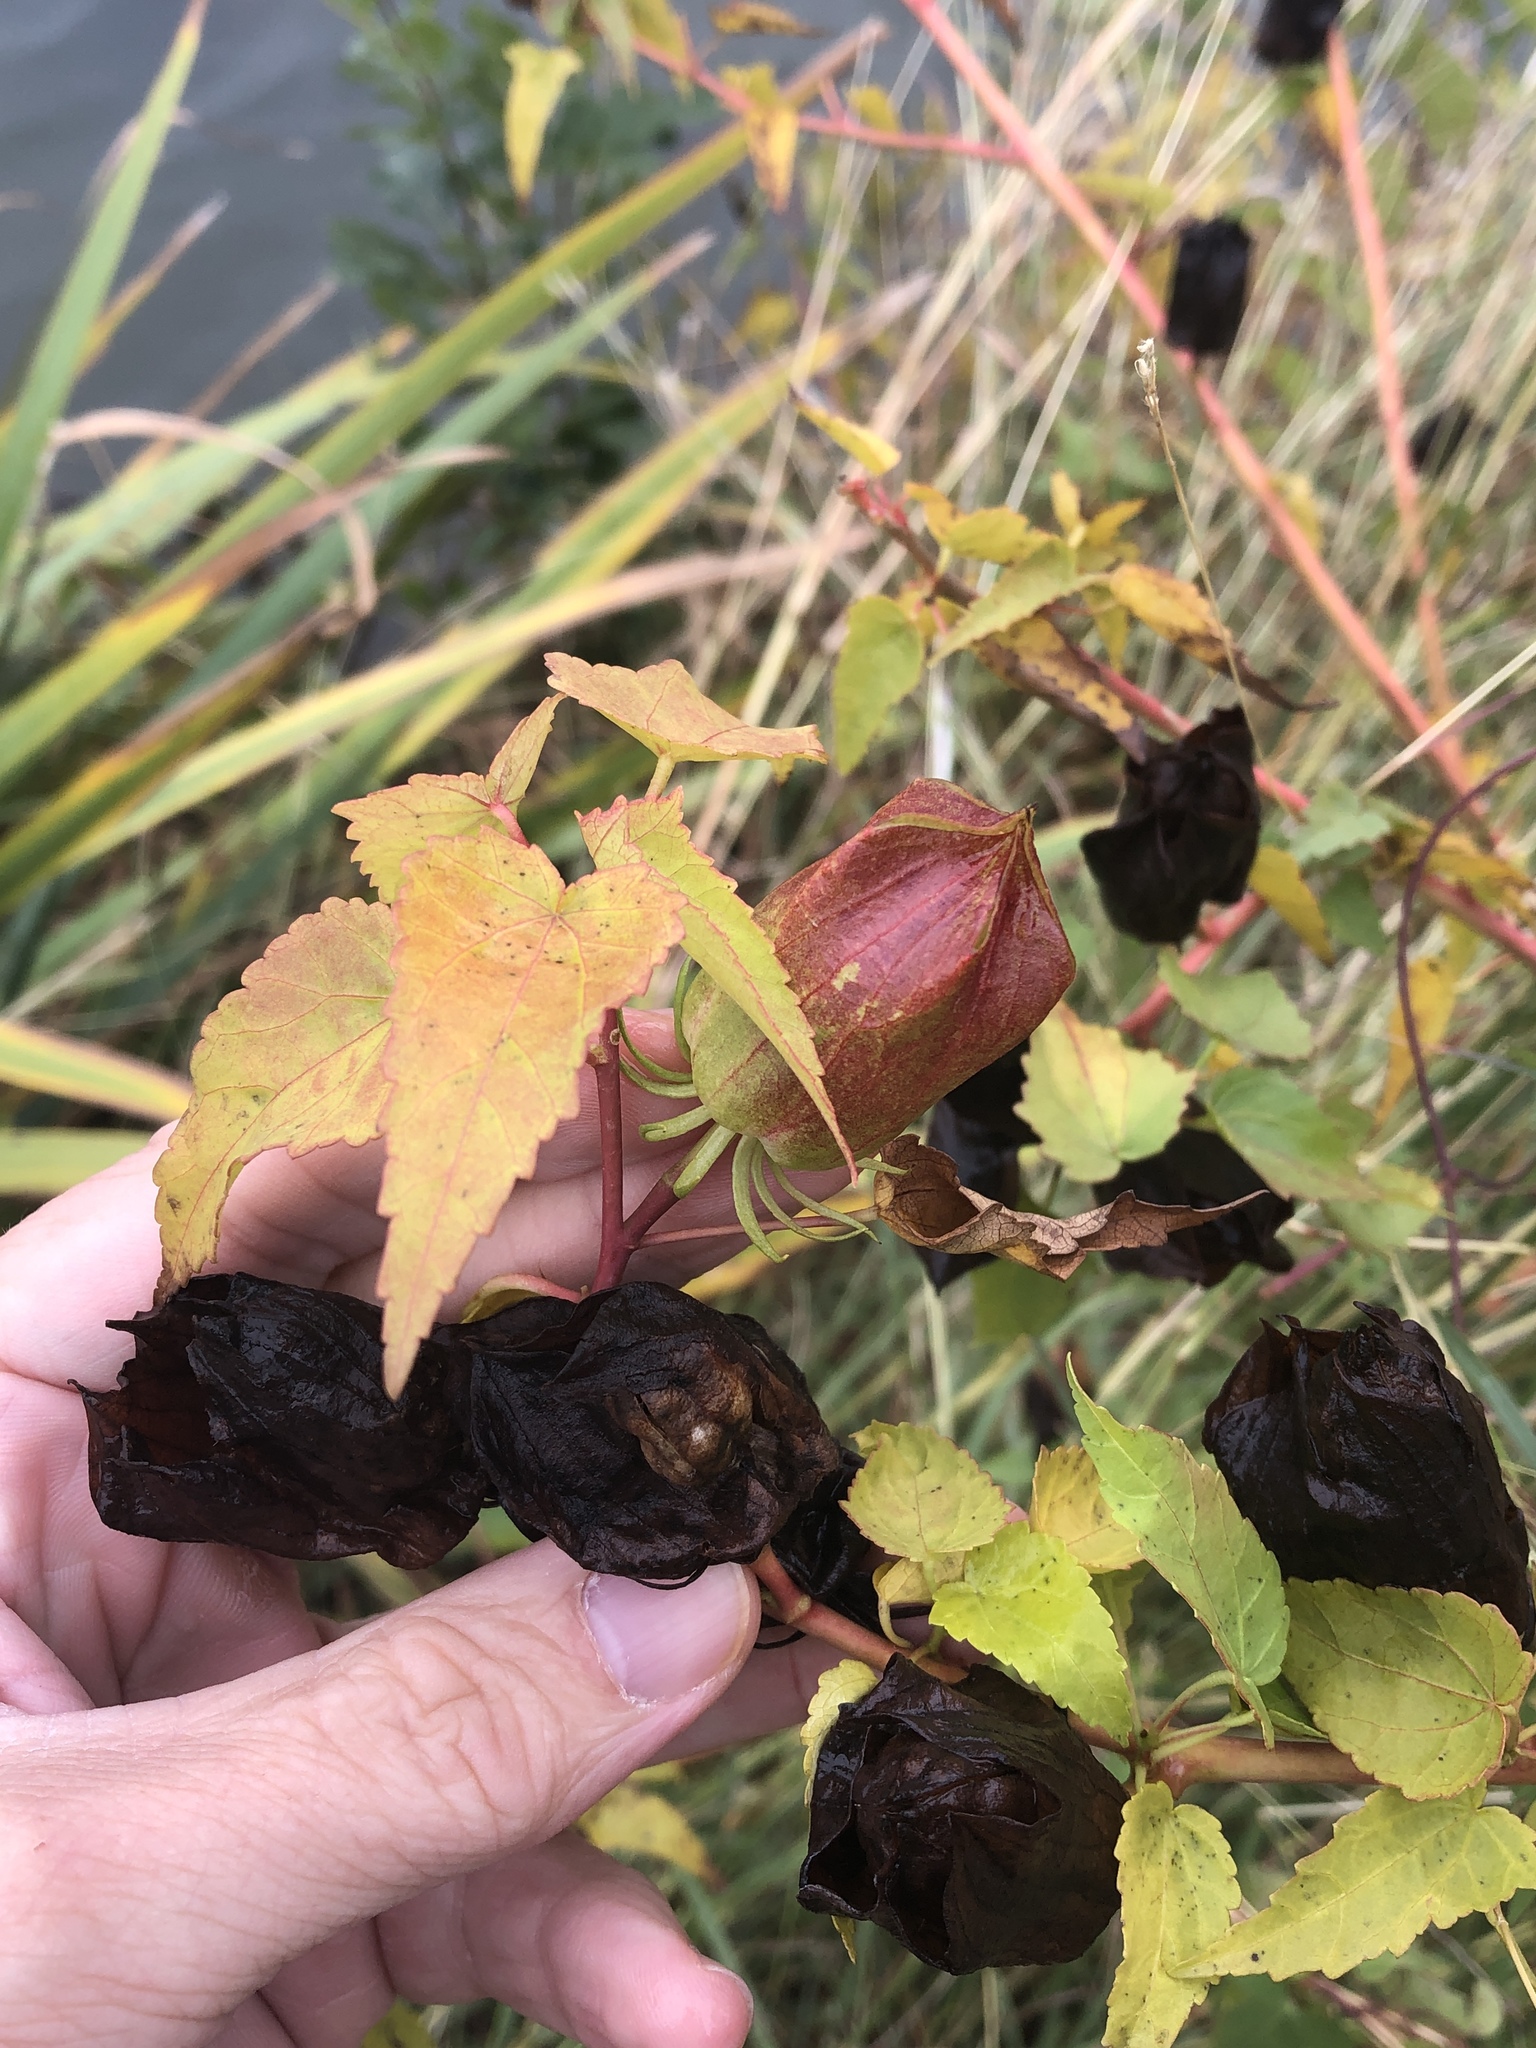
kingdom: Plantae
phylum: Tracheophyta
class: Magnoliopsida
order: Malvales
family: Malvaceae
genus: Hibiscus
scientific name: Hibiscus laevis
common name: Scarlet rose-mallow
